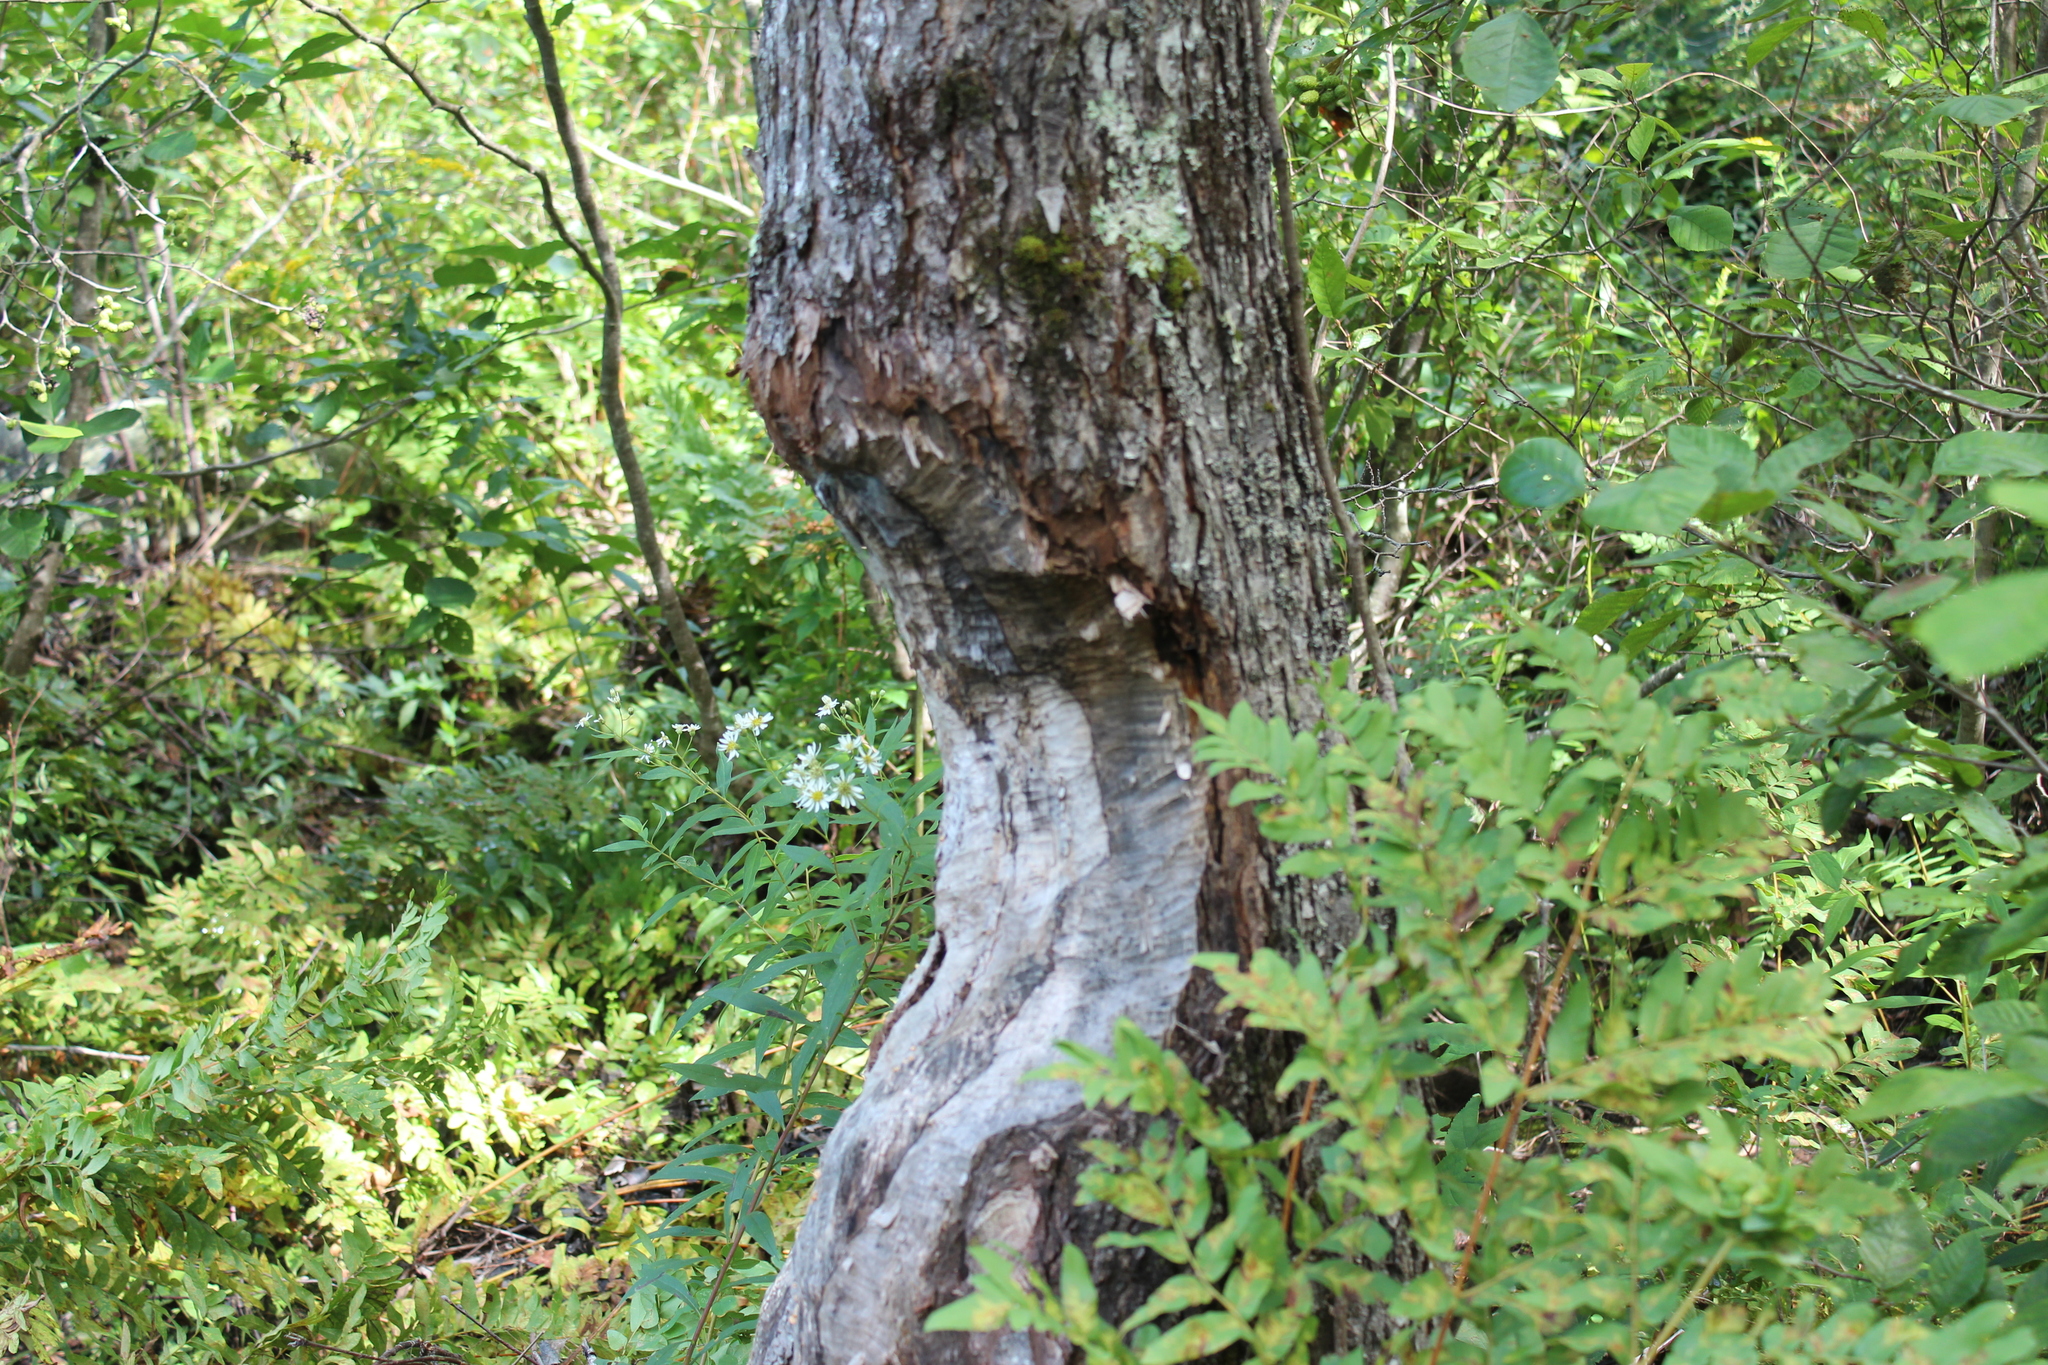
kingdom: Animalia
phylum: Chordata
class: Mammalia
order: Rodentia
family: Castoridae
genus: Castor
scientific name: Castor canadensis
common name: American beaver
